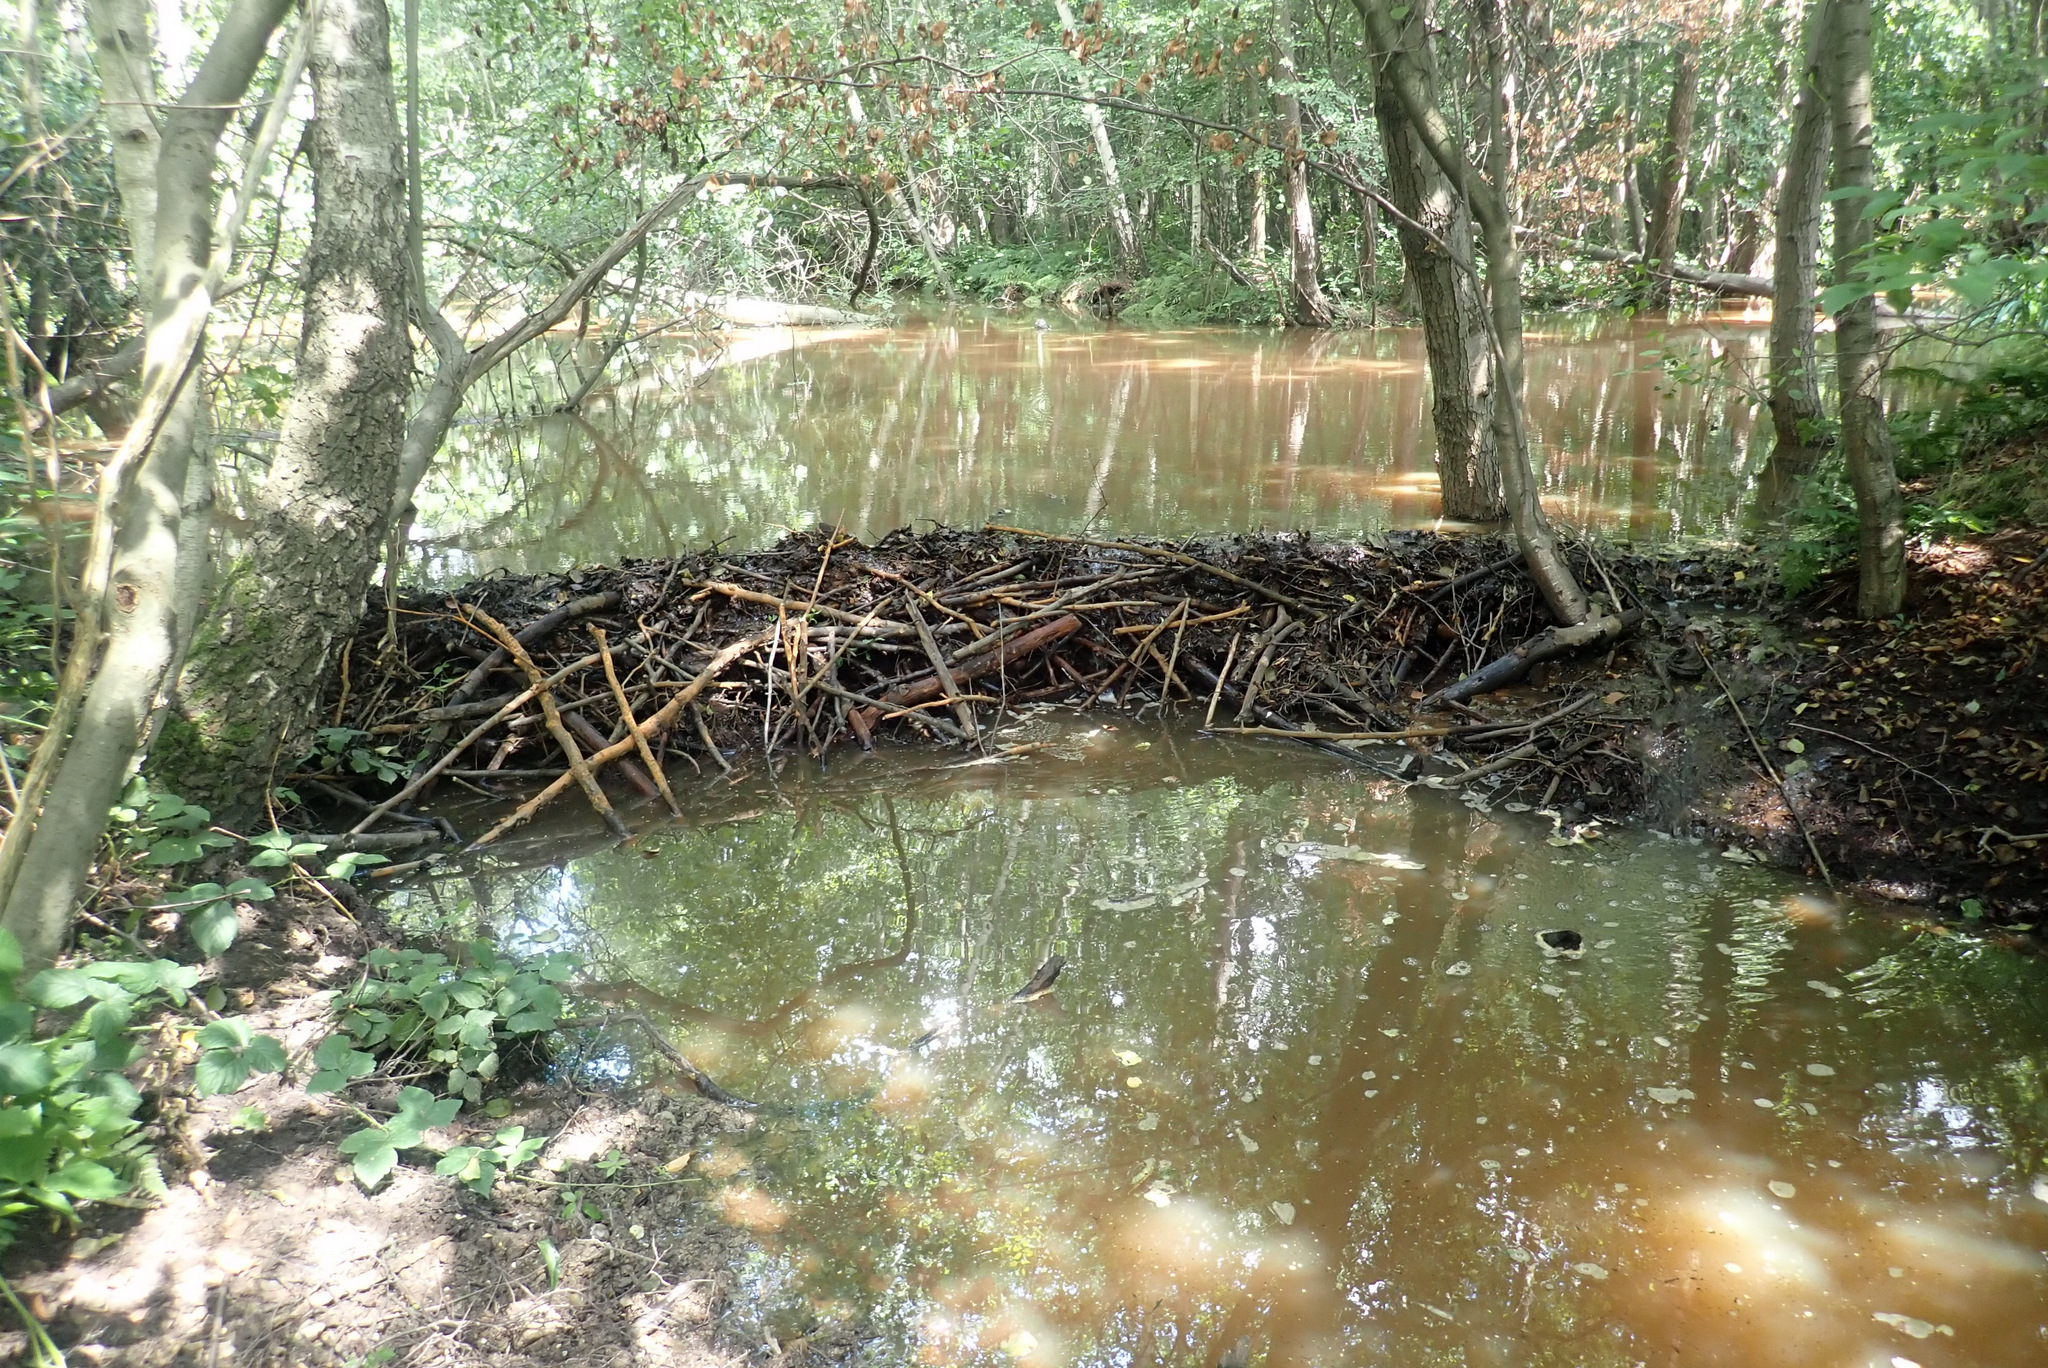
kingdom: Animalia
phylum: Chordata
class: Mammalia
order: Rodentia
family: Castoridae
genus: Castor
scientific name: Castor fiber
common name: Eurasian beaver
